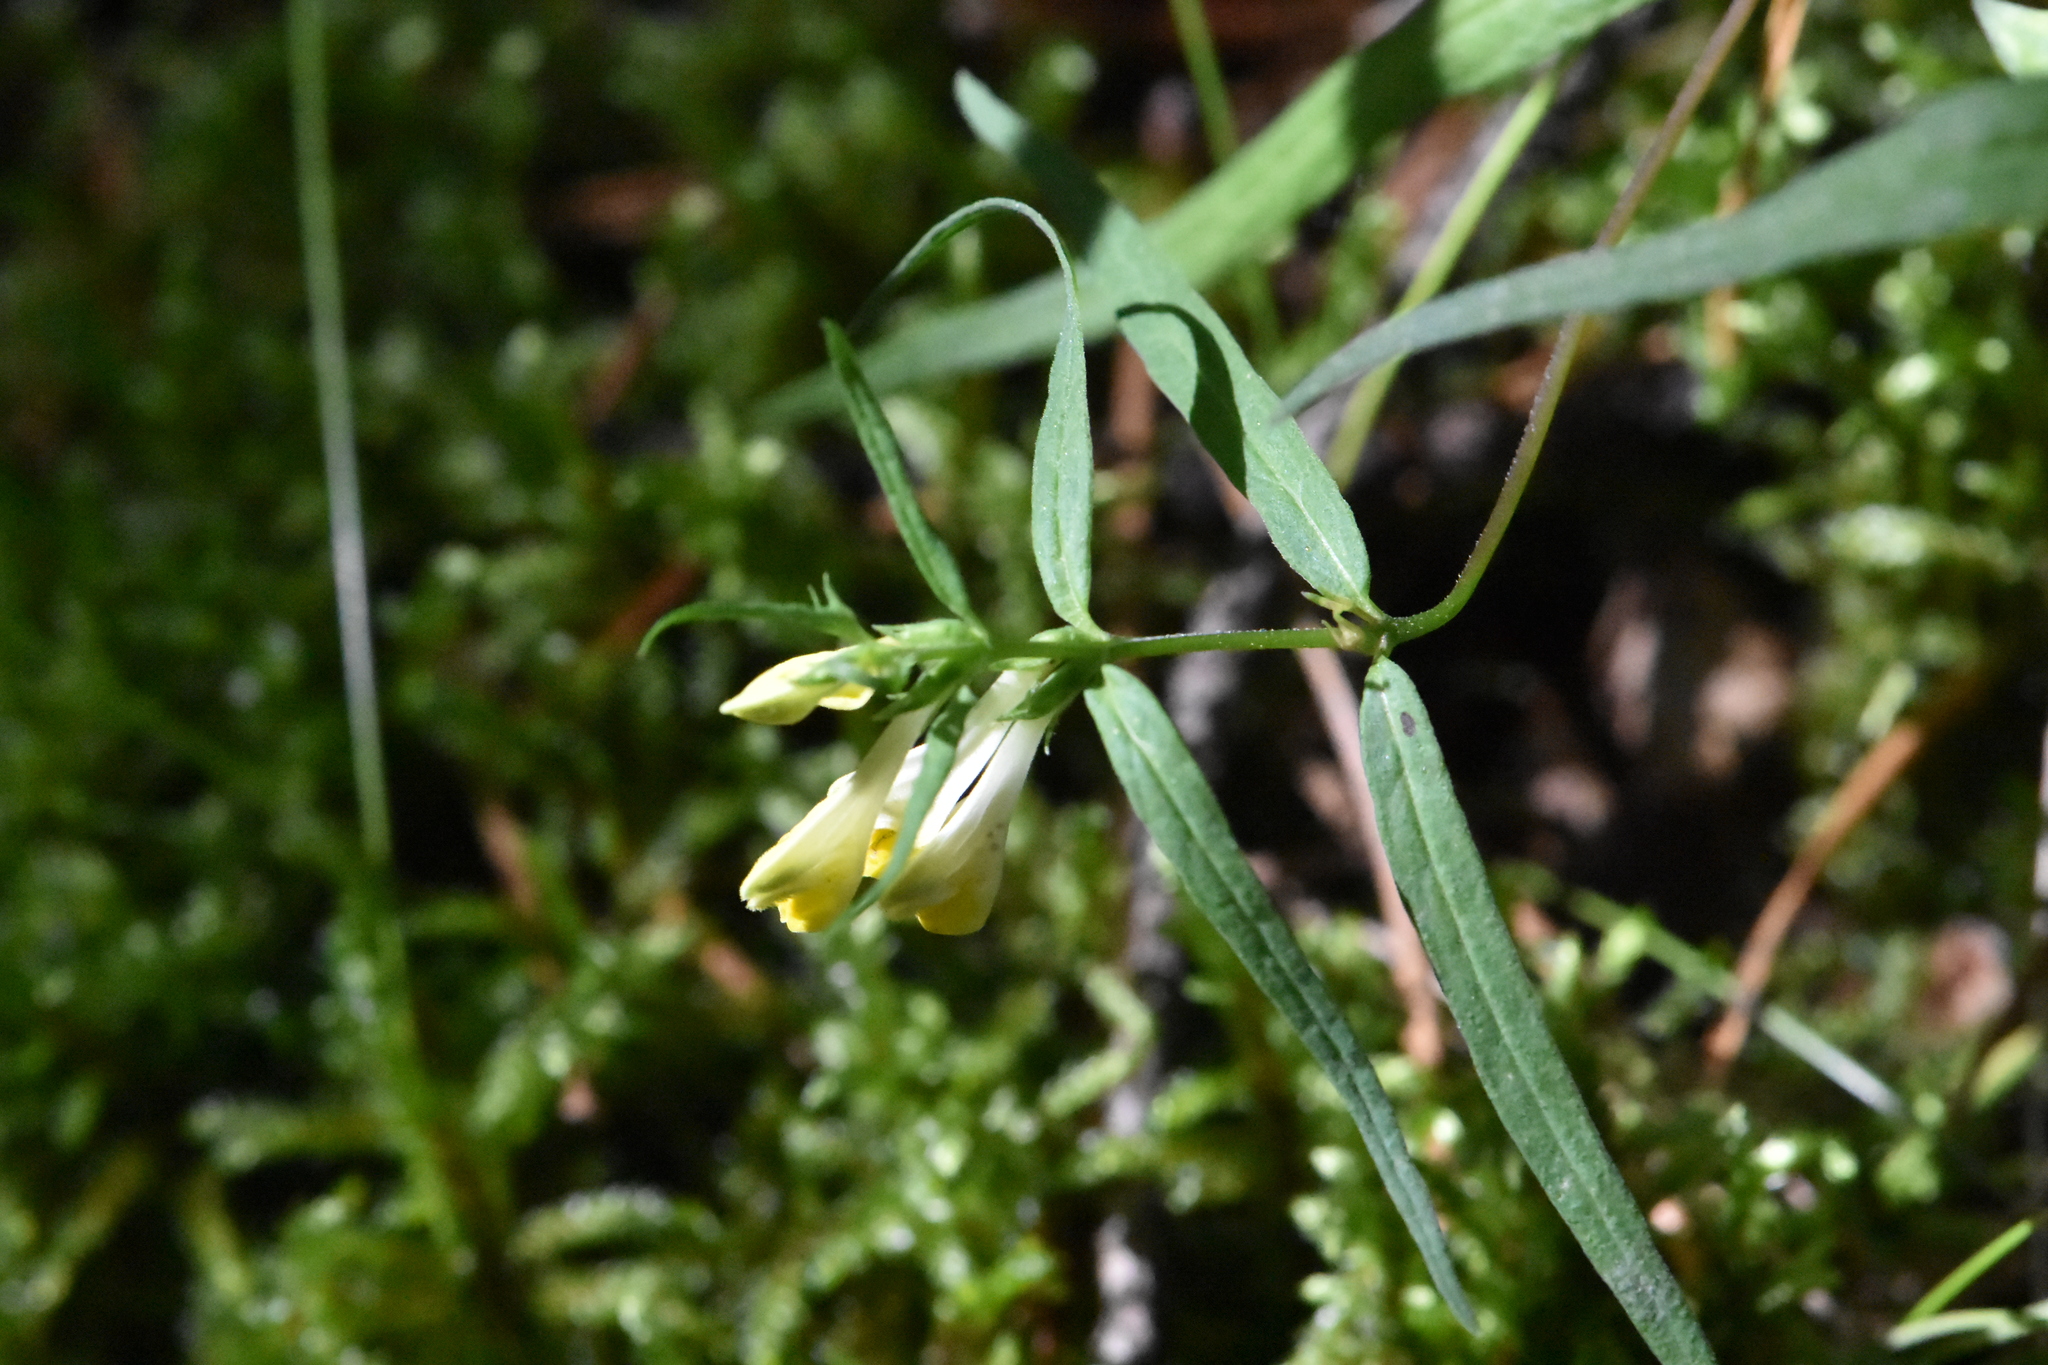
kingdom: Plantae
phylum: Tracheophyta
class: Magnoliopsida
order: Lamiales
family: Orobanchaceae
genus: Melampyrum
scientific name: Melampyrum pratense
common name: Common cow-wheat
